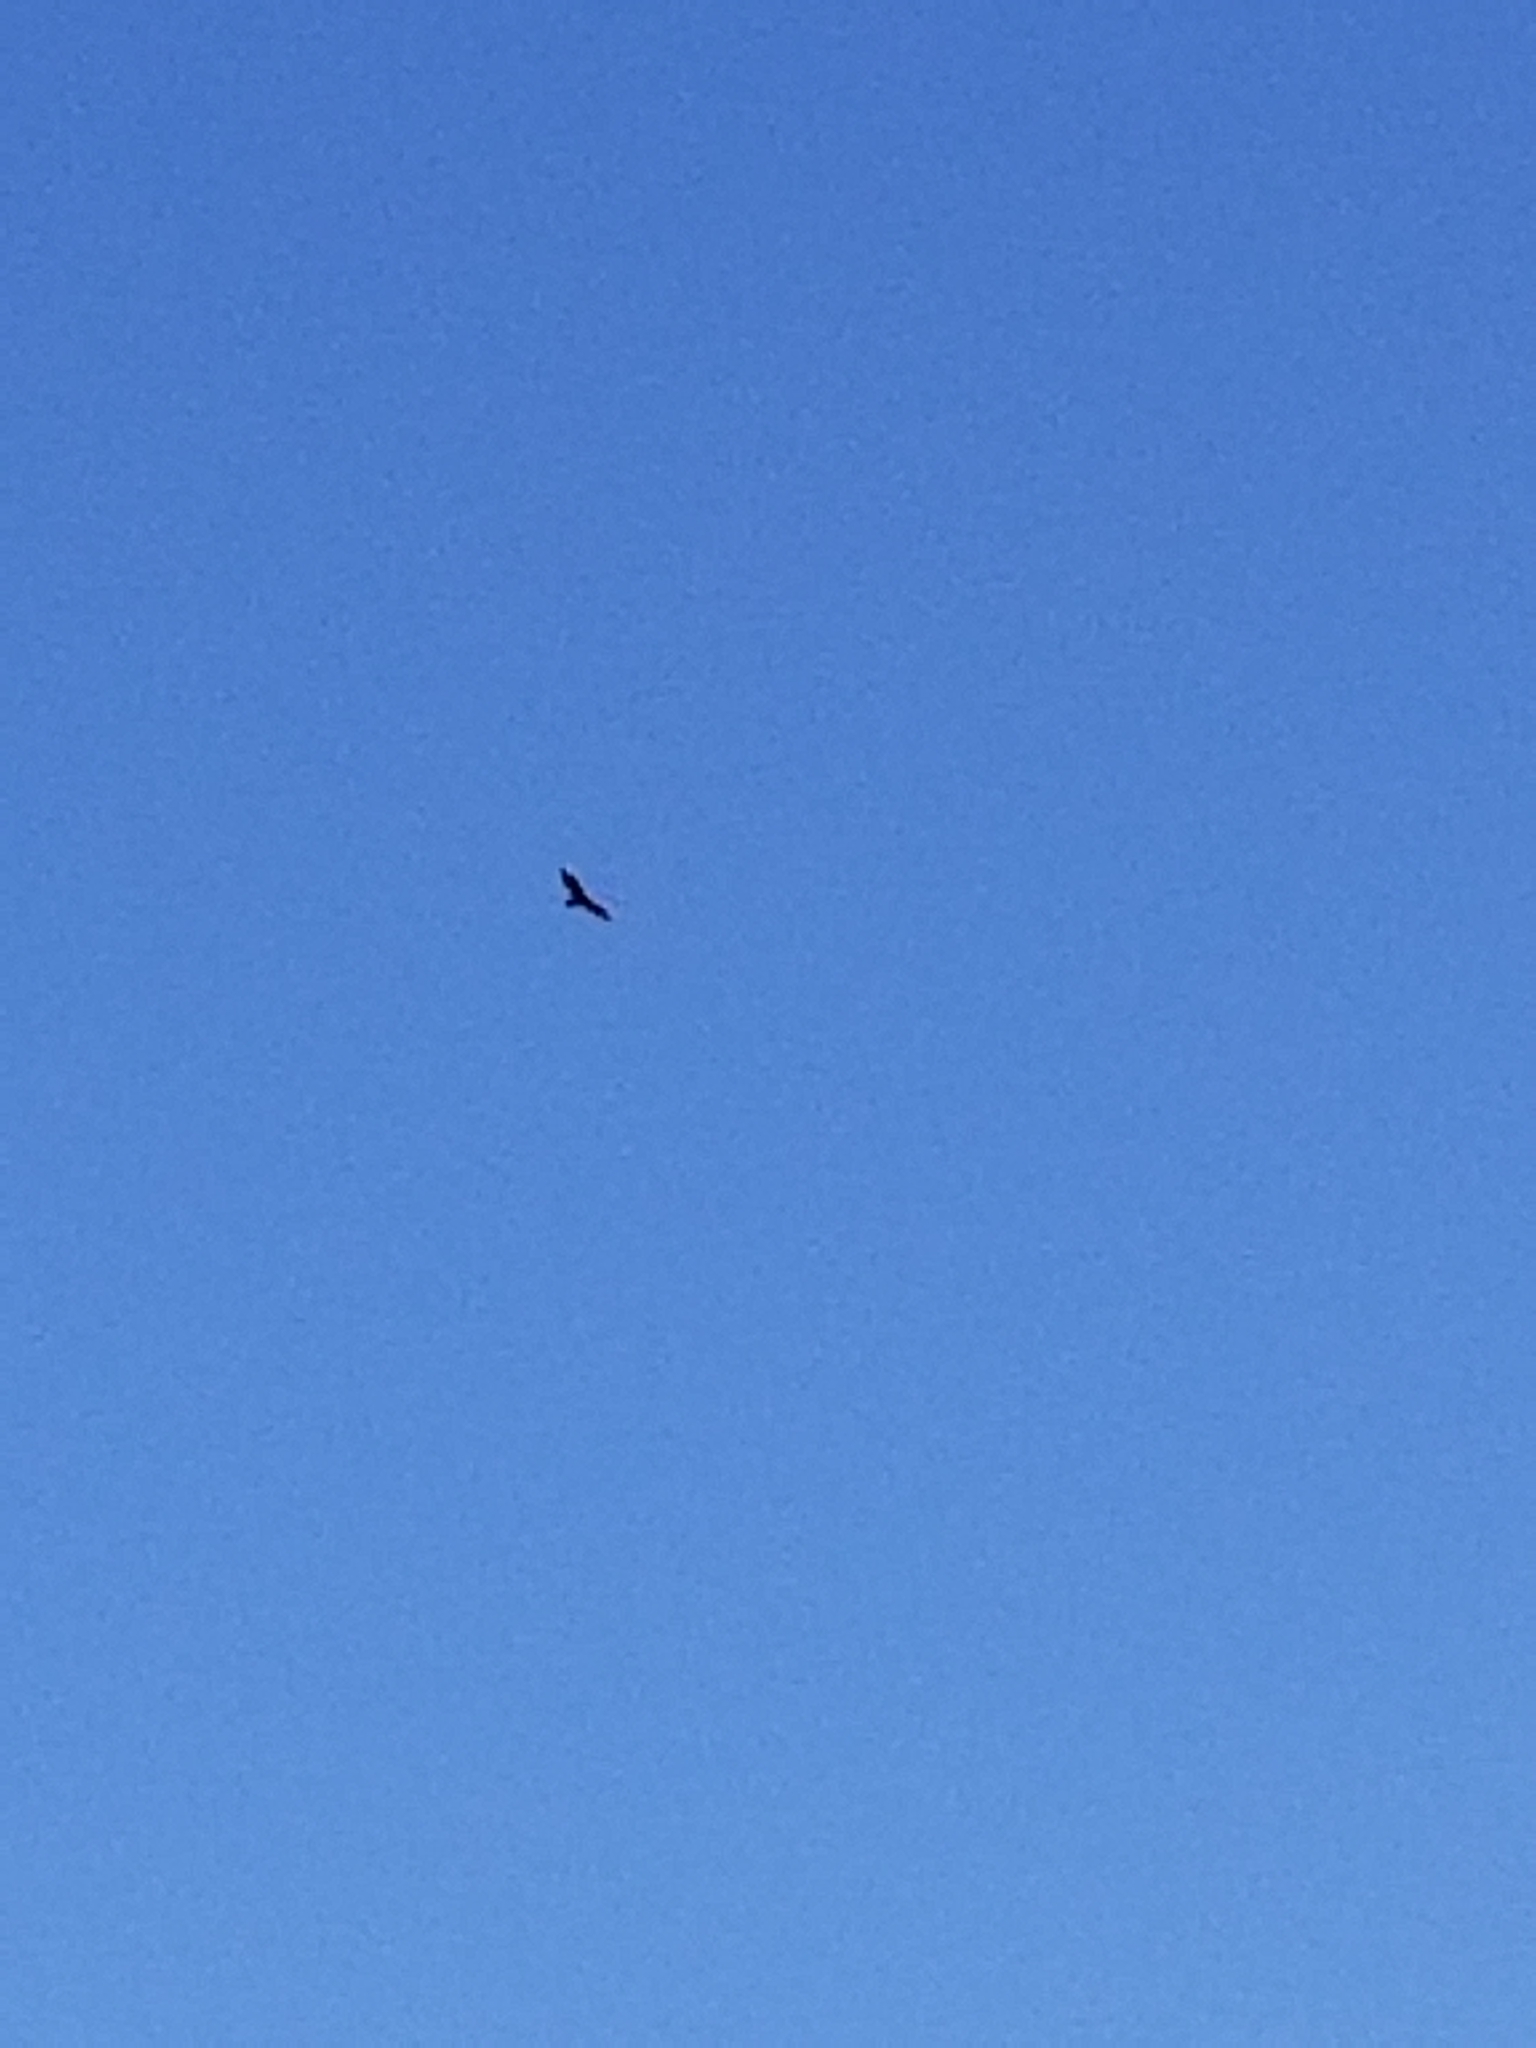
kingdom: Animalia
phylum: Chordata
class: Aves
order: Accipitriformes
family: Cathartidae
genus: Cathartes
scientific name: Cathartes aura
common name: Turkey vulture
